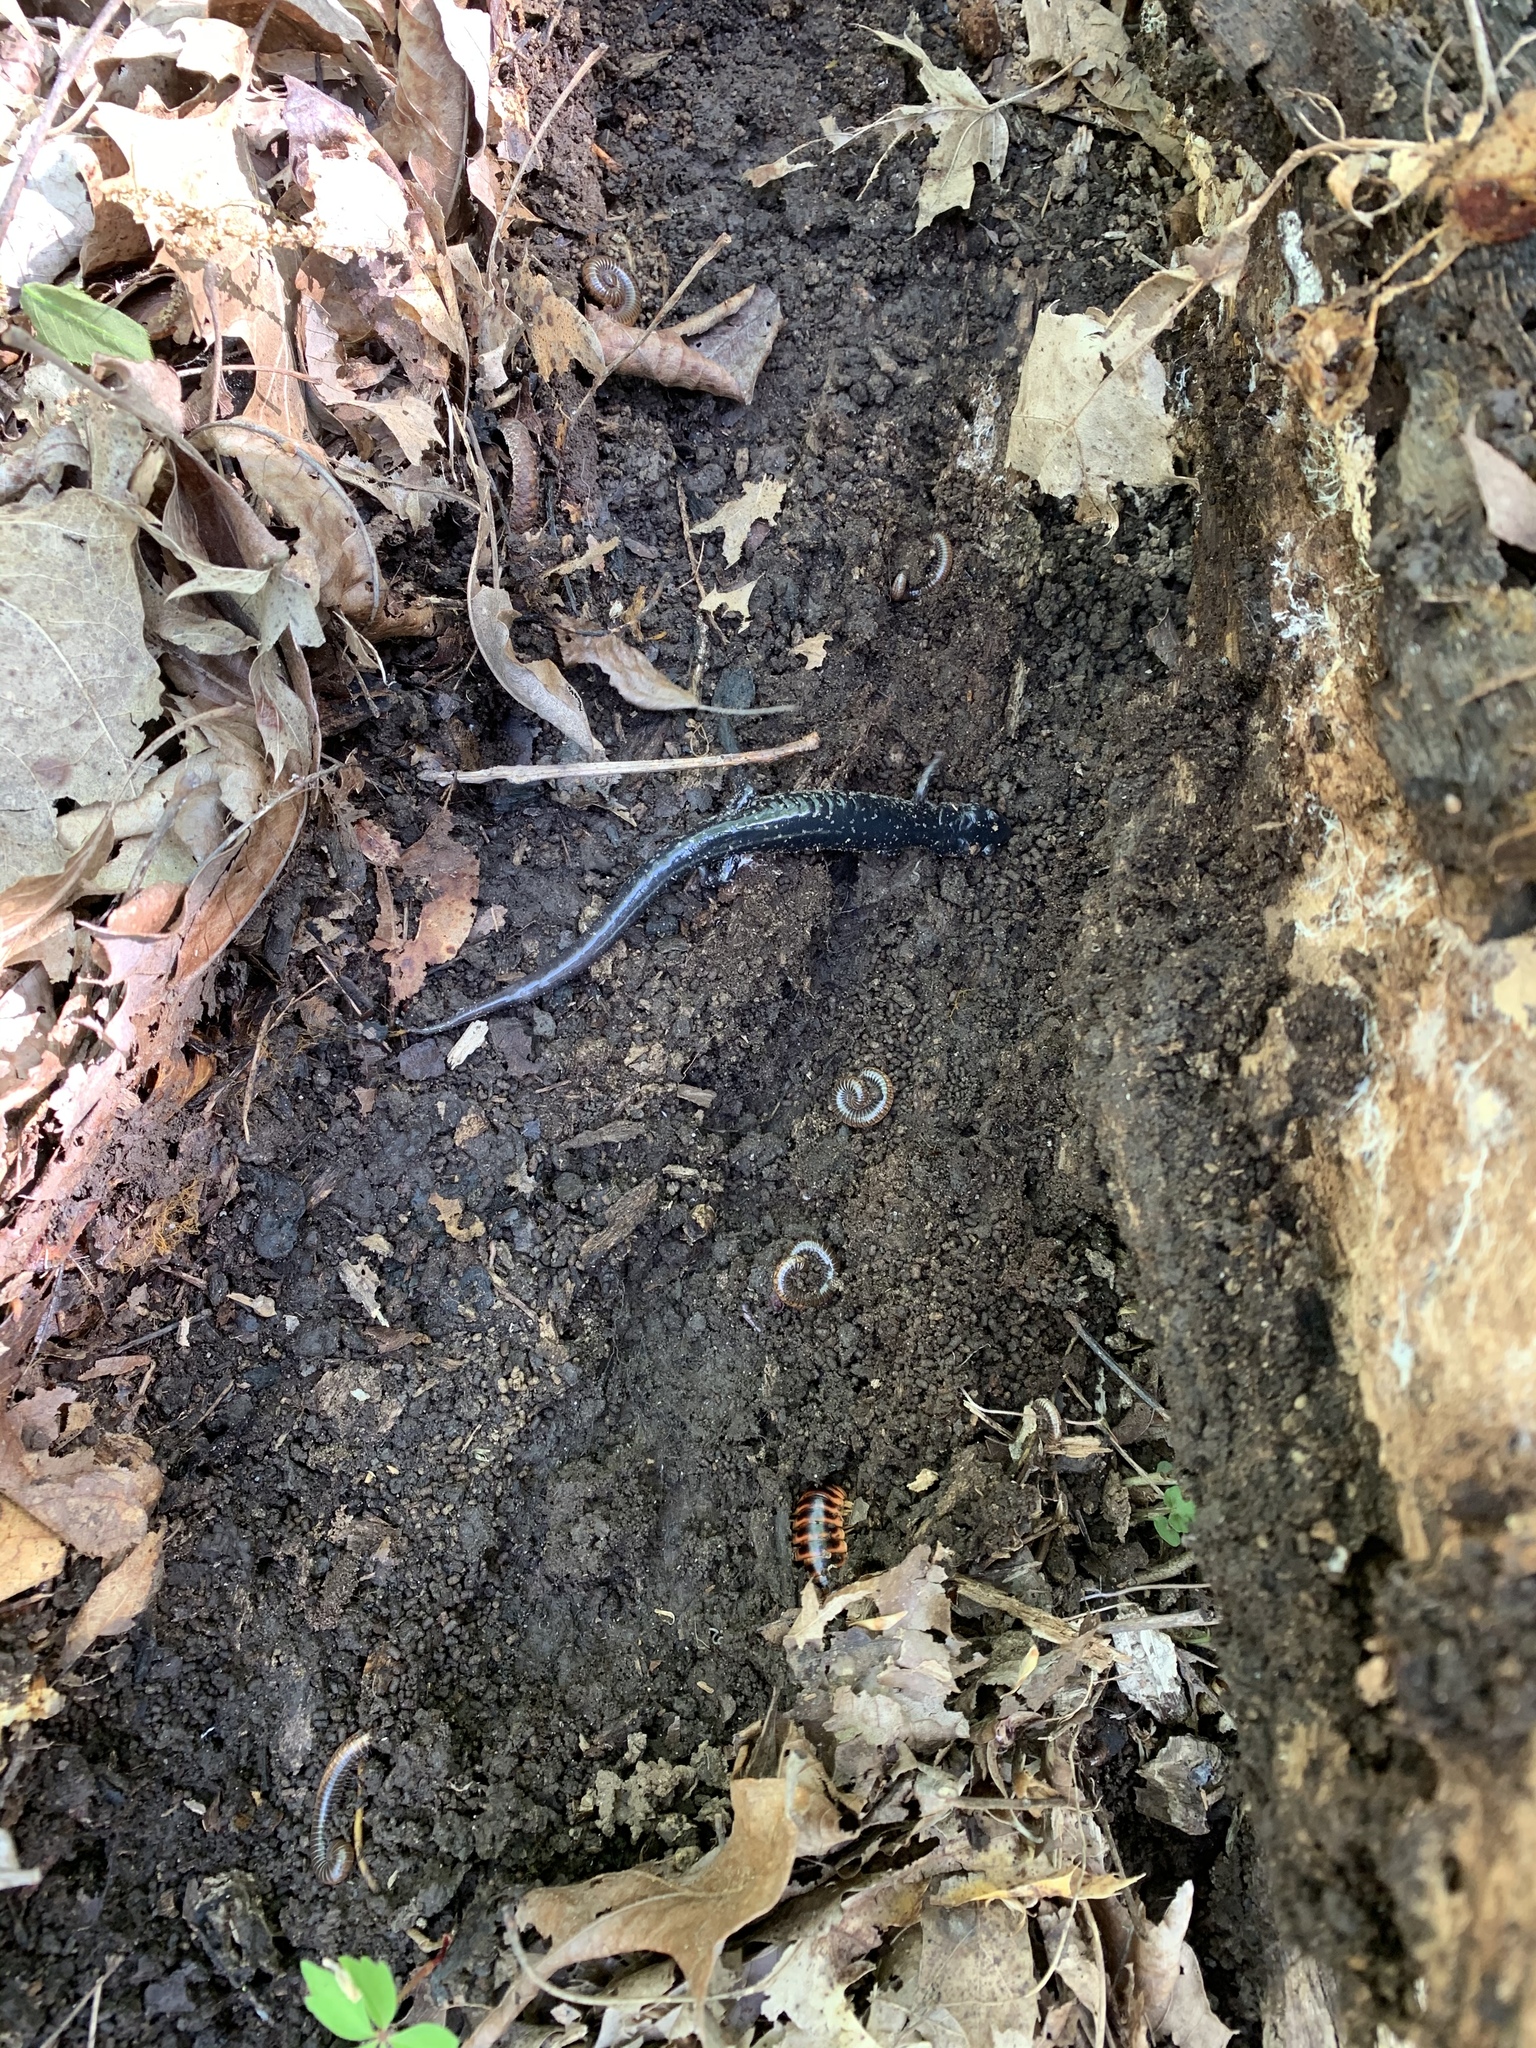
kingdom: Animalia
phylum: Chordata
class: Amphibia
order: Caudata
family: Plethodontidae
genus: Plethodon
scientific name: Plethodon glutinosus
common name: Northern slimy salamander
